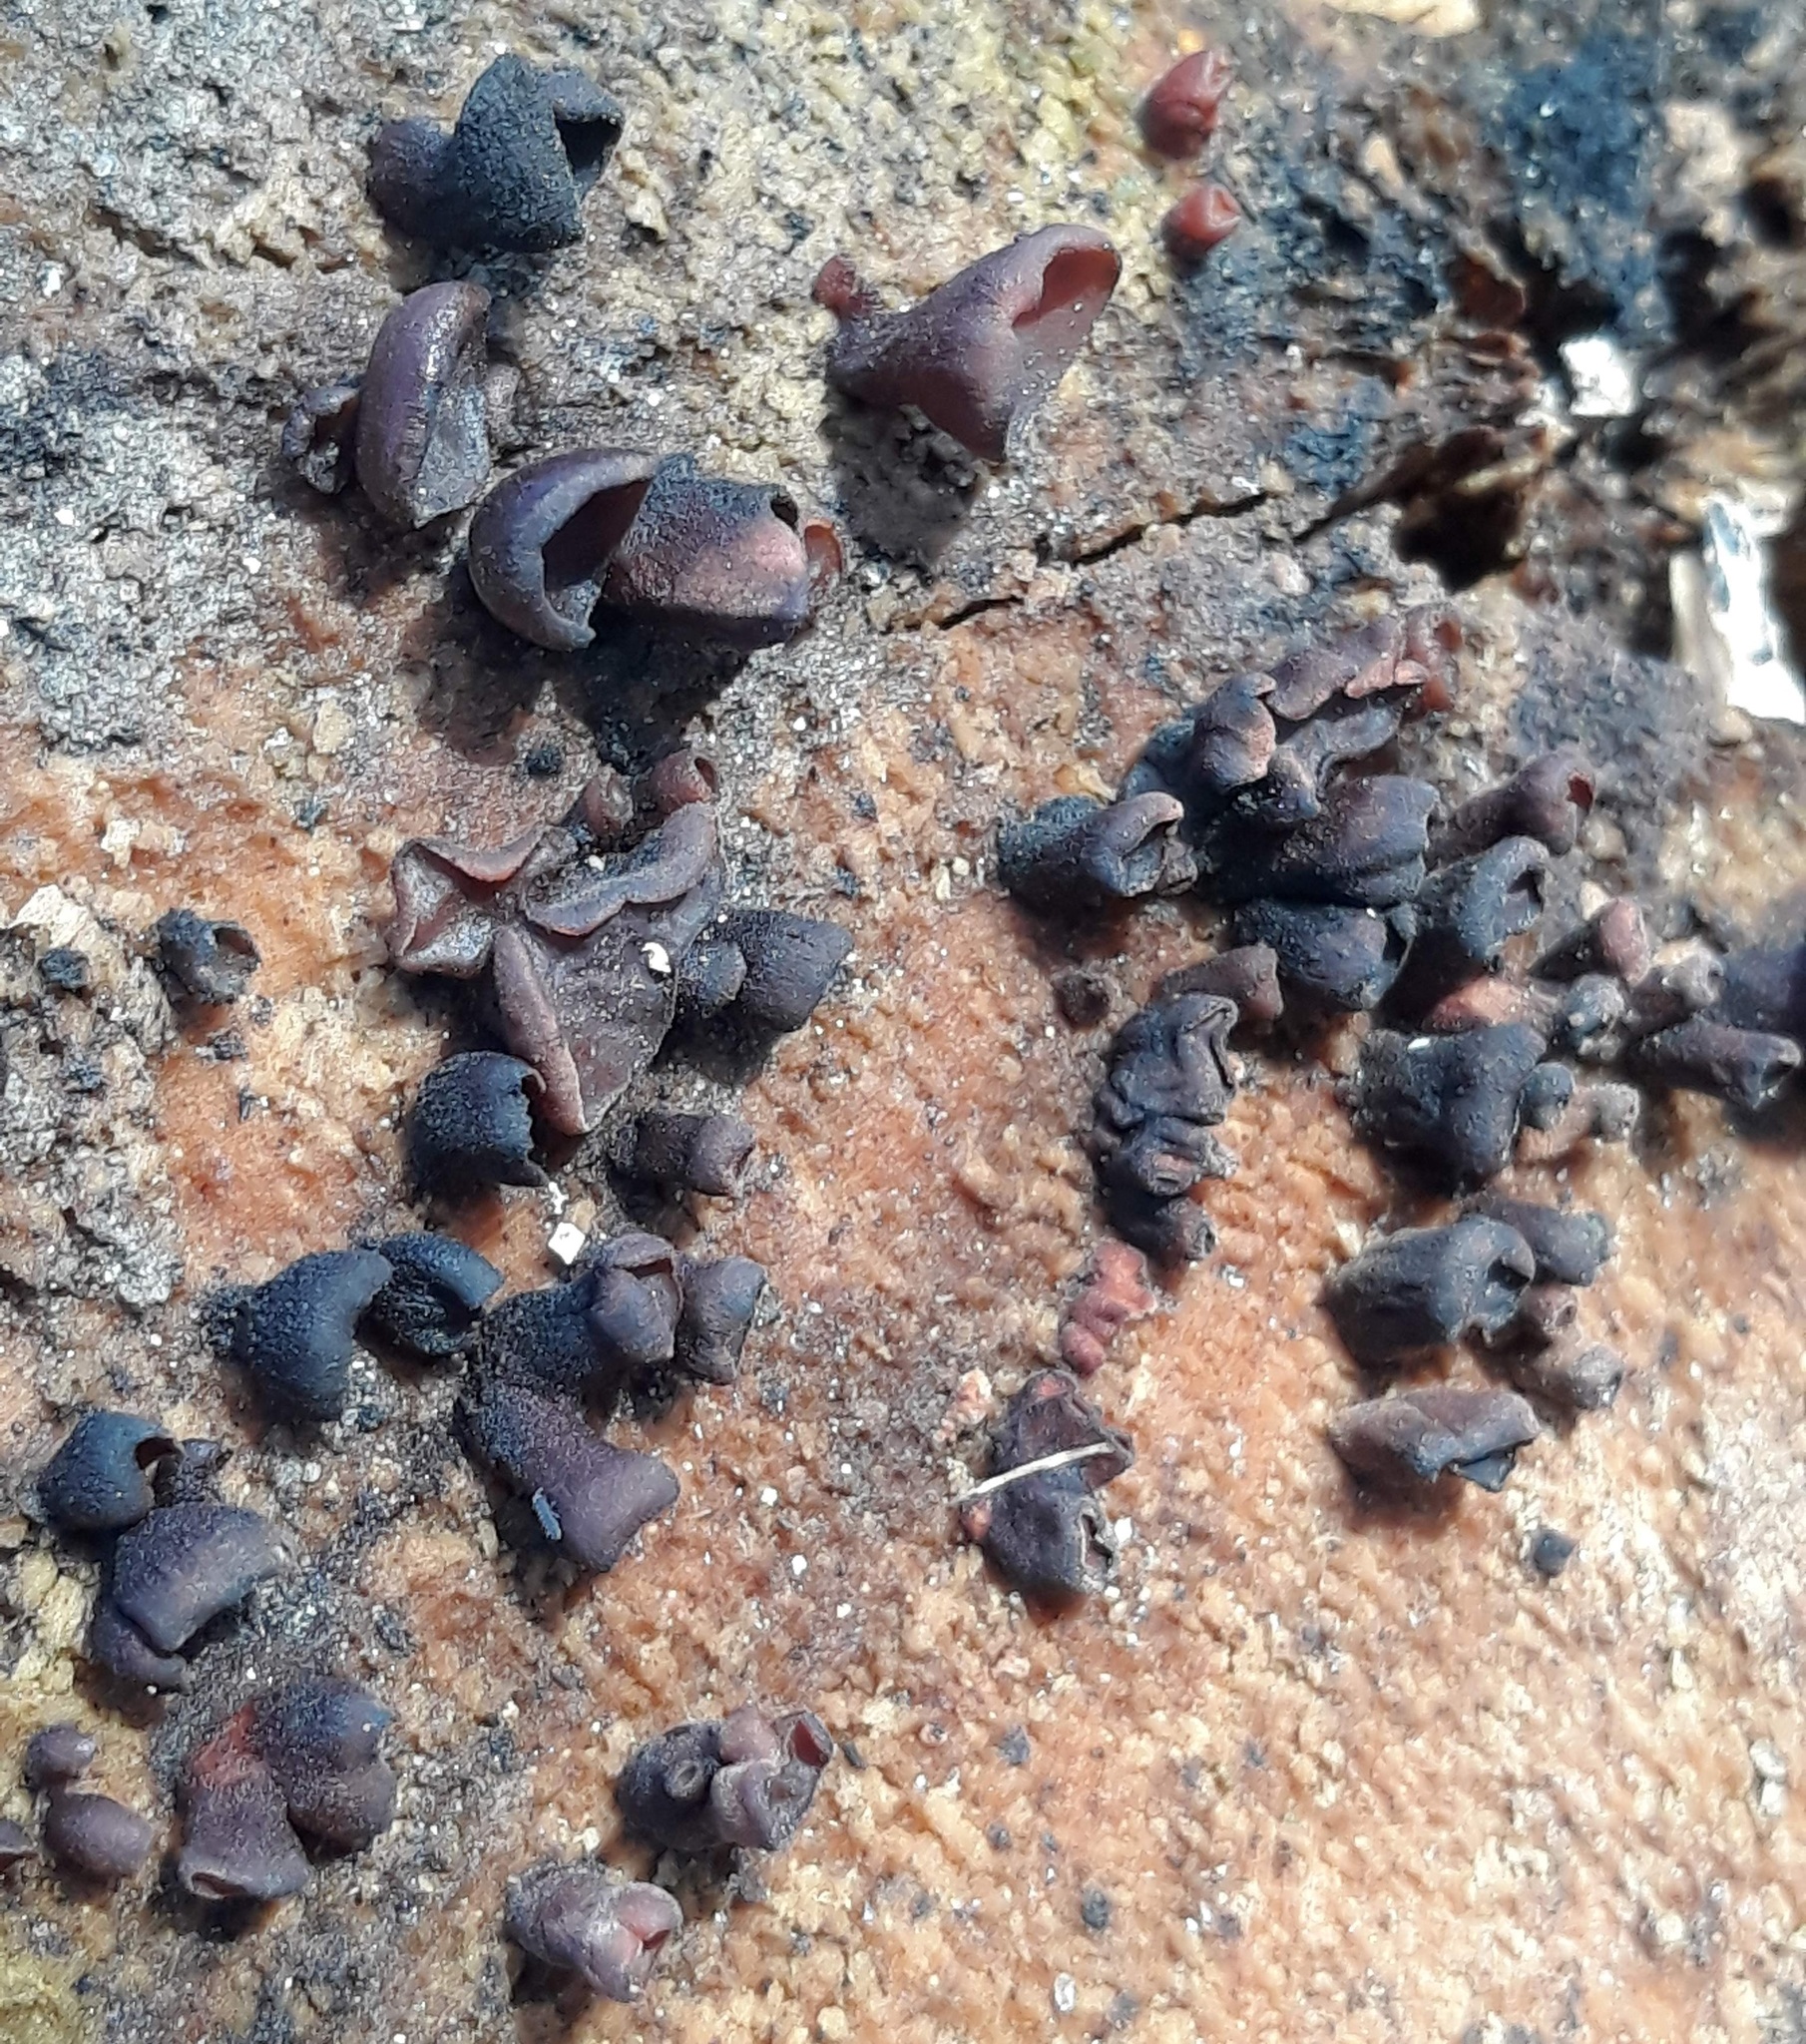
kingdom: Fungi
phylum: Basidiomycota
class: Dacrymycetes
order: Dacrymycetales
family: Dacrymycetaceae
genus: Dacryopinax
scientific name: Dacryopinax elegans
